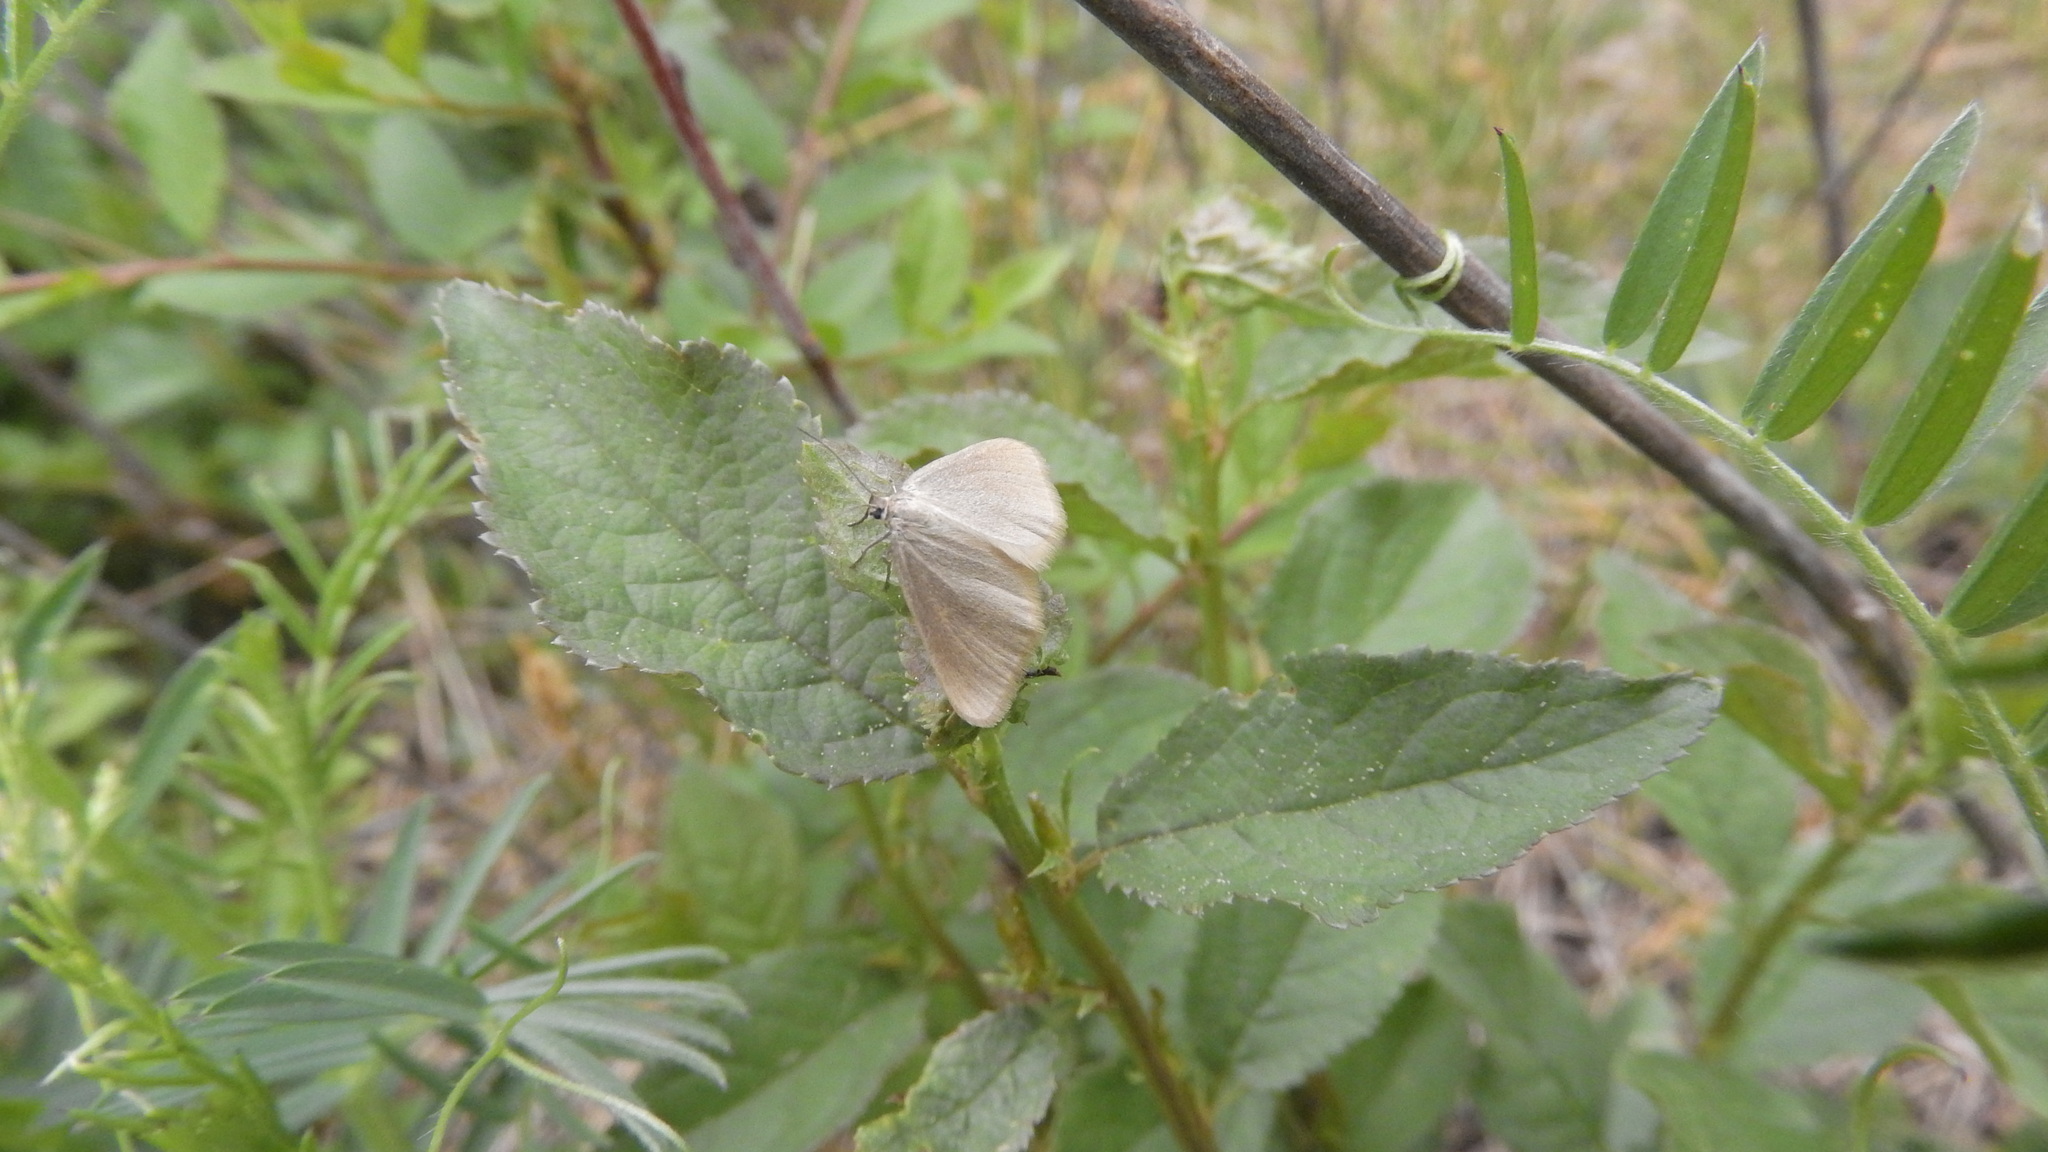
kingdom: Animalia
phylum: Arthropoda
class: Insecta
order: Lepidoptera
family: Geometridae
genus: Minoa
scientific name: Minoa murinata
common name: Drab looper
